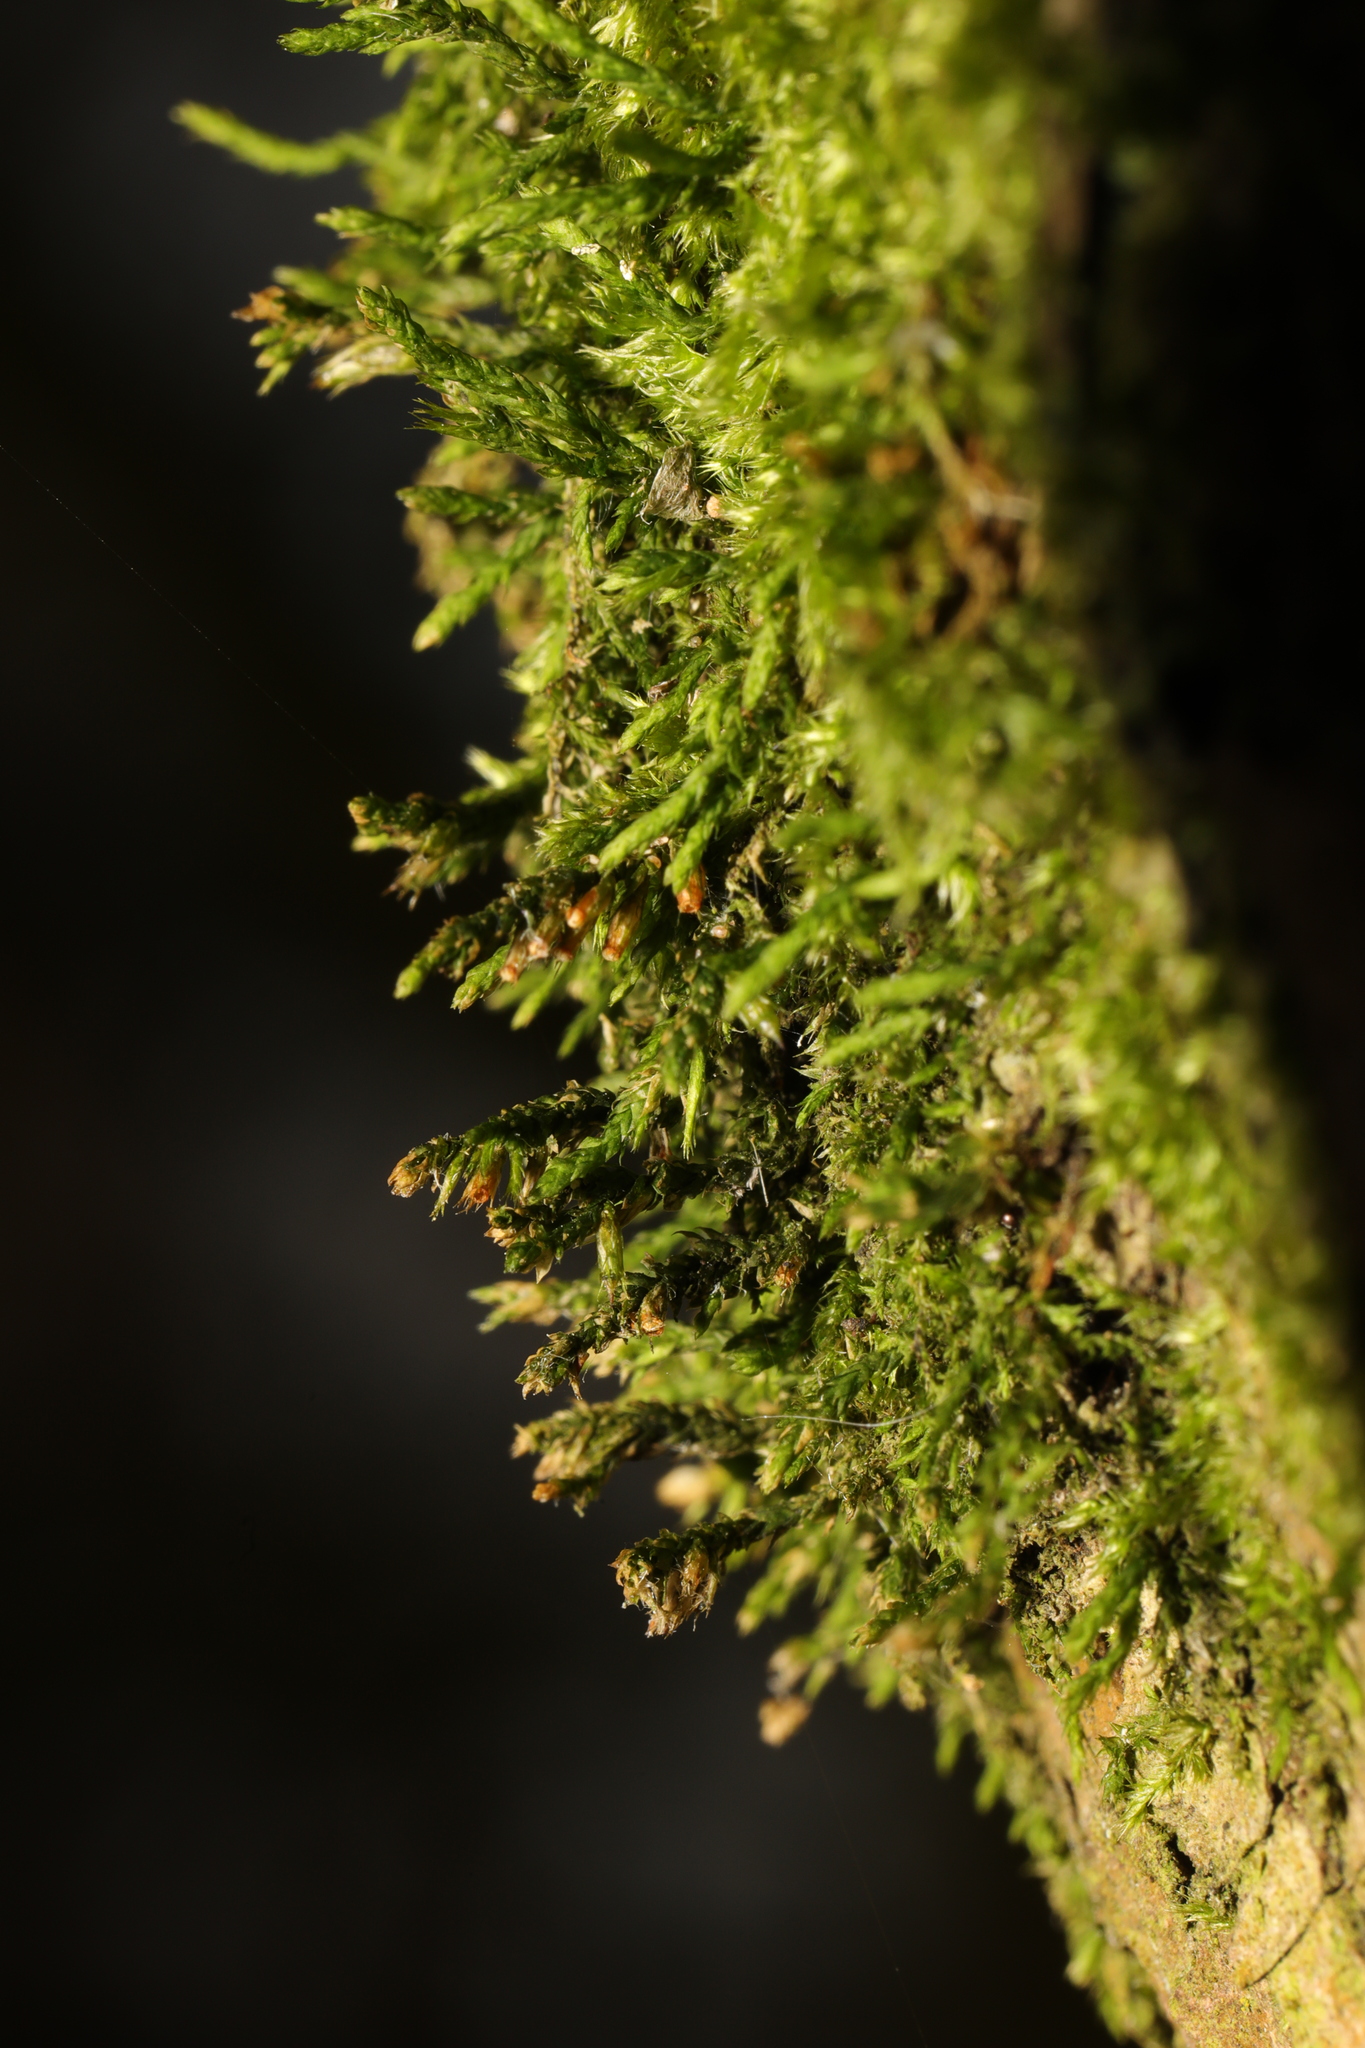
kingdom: Plantae
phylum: Bryophyta
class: Bryopsida
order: Hypnales
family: Cryphaeaceae
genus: Cryphaea
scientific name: Cryphaea heteromalla
